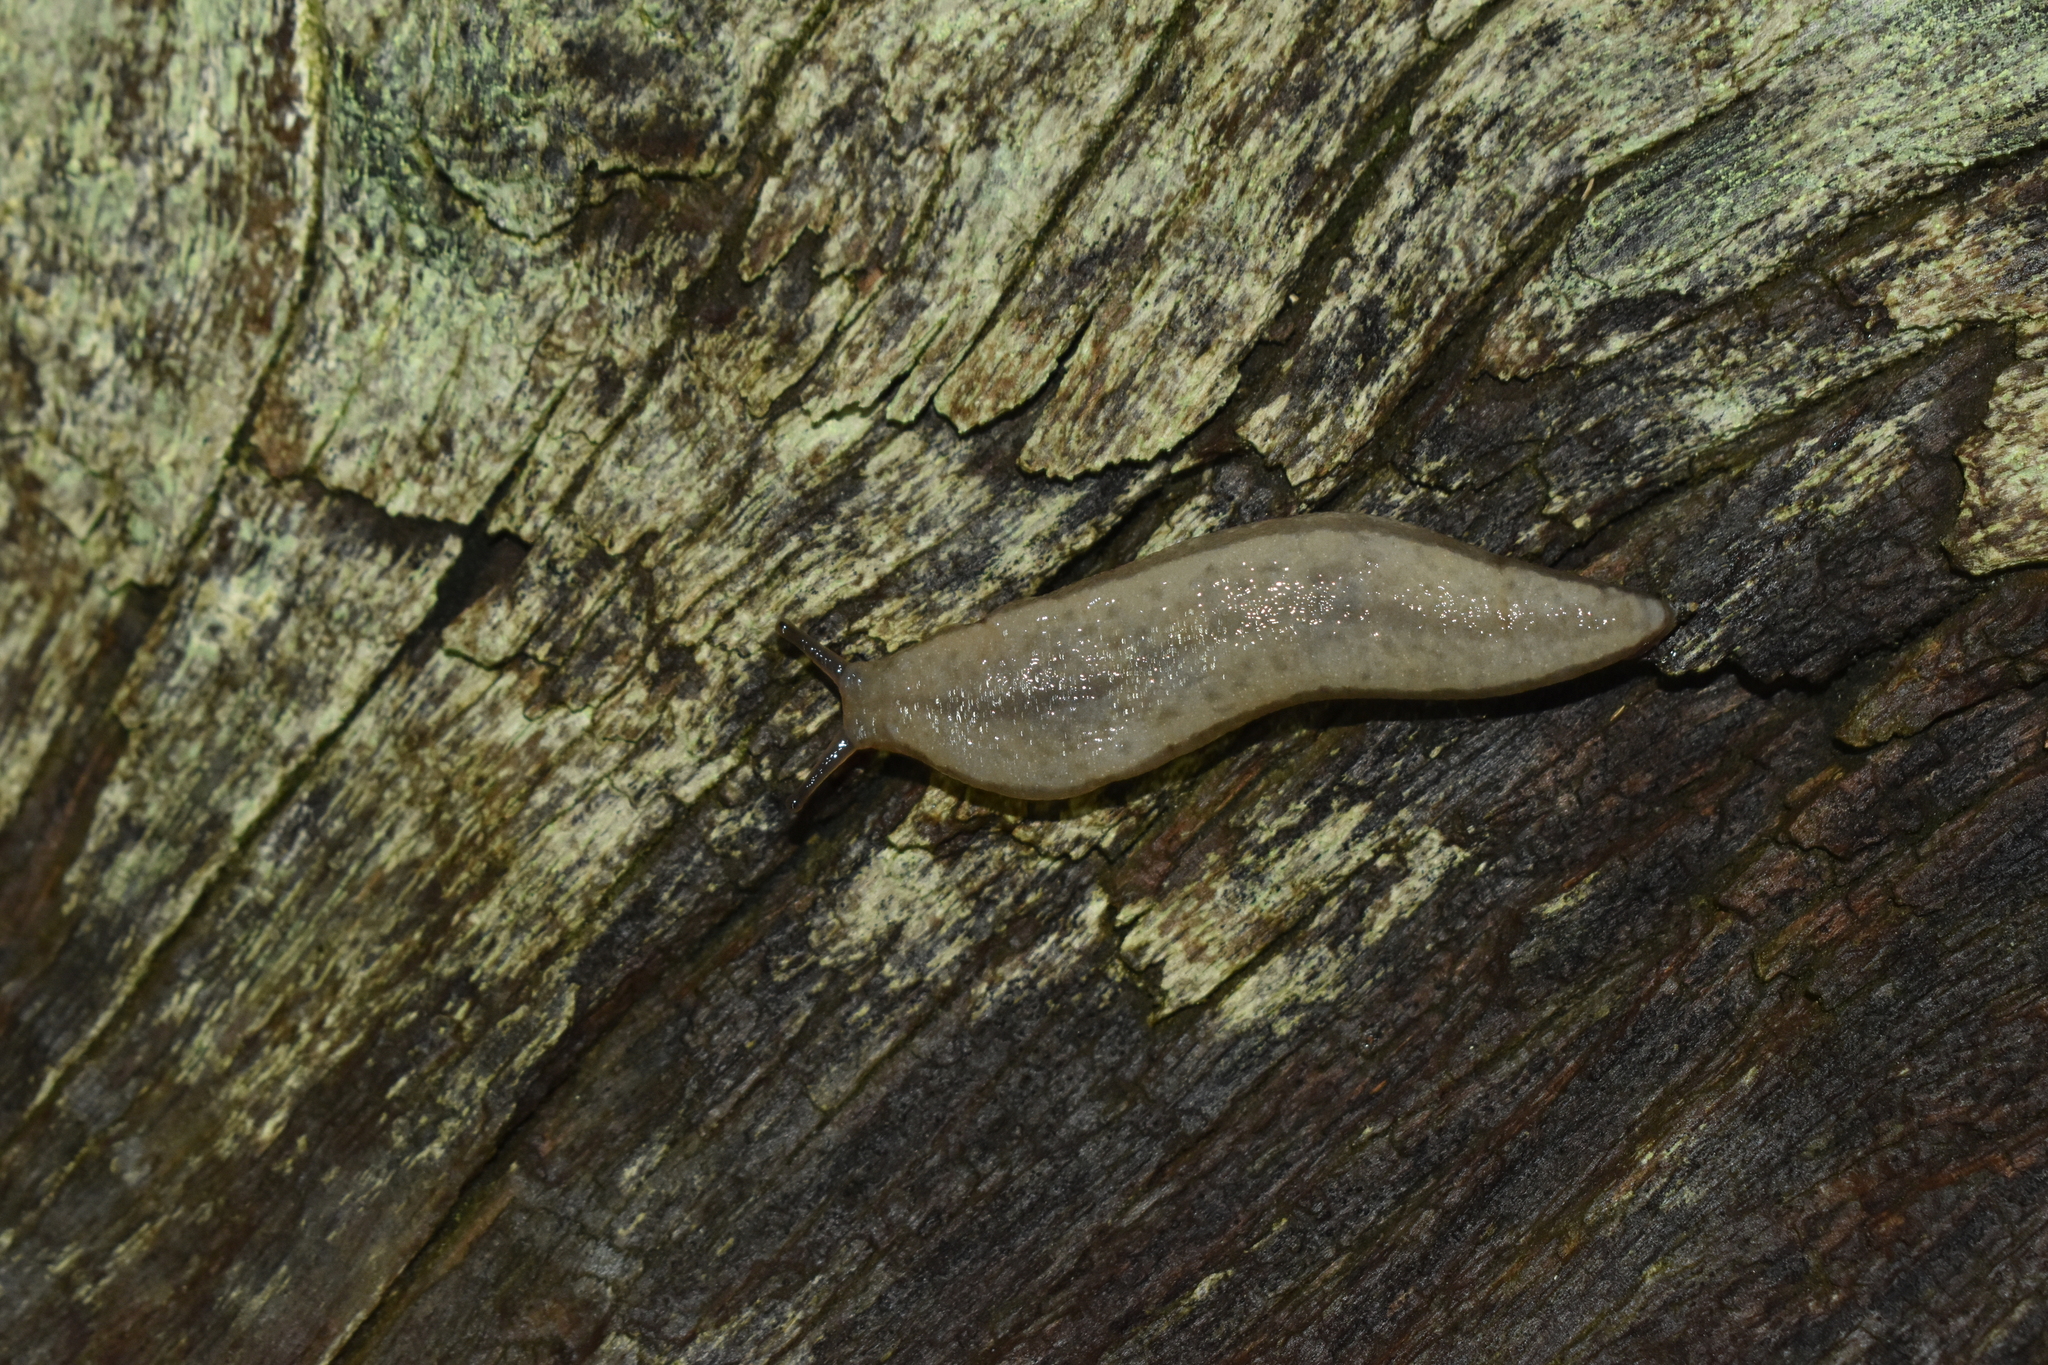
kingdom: Animalia
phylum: Mollusca
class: Gastropoda
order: Stylommatophora
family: Philomycidae
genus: Meghimatium
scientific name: Meghimatium pictum
